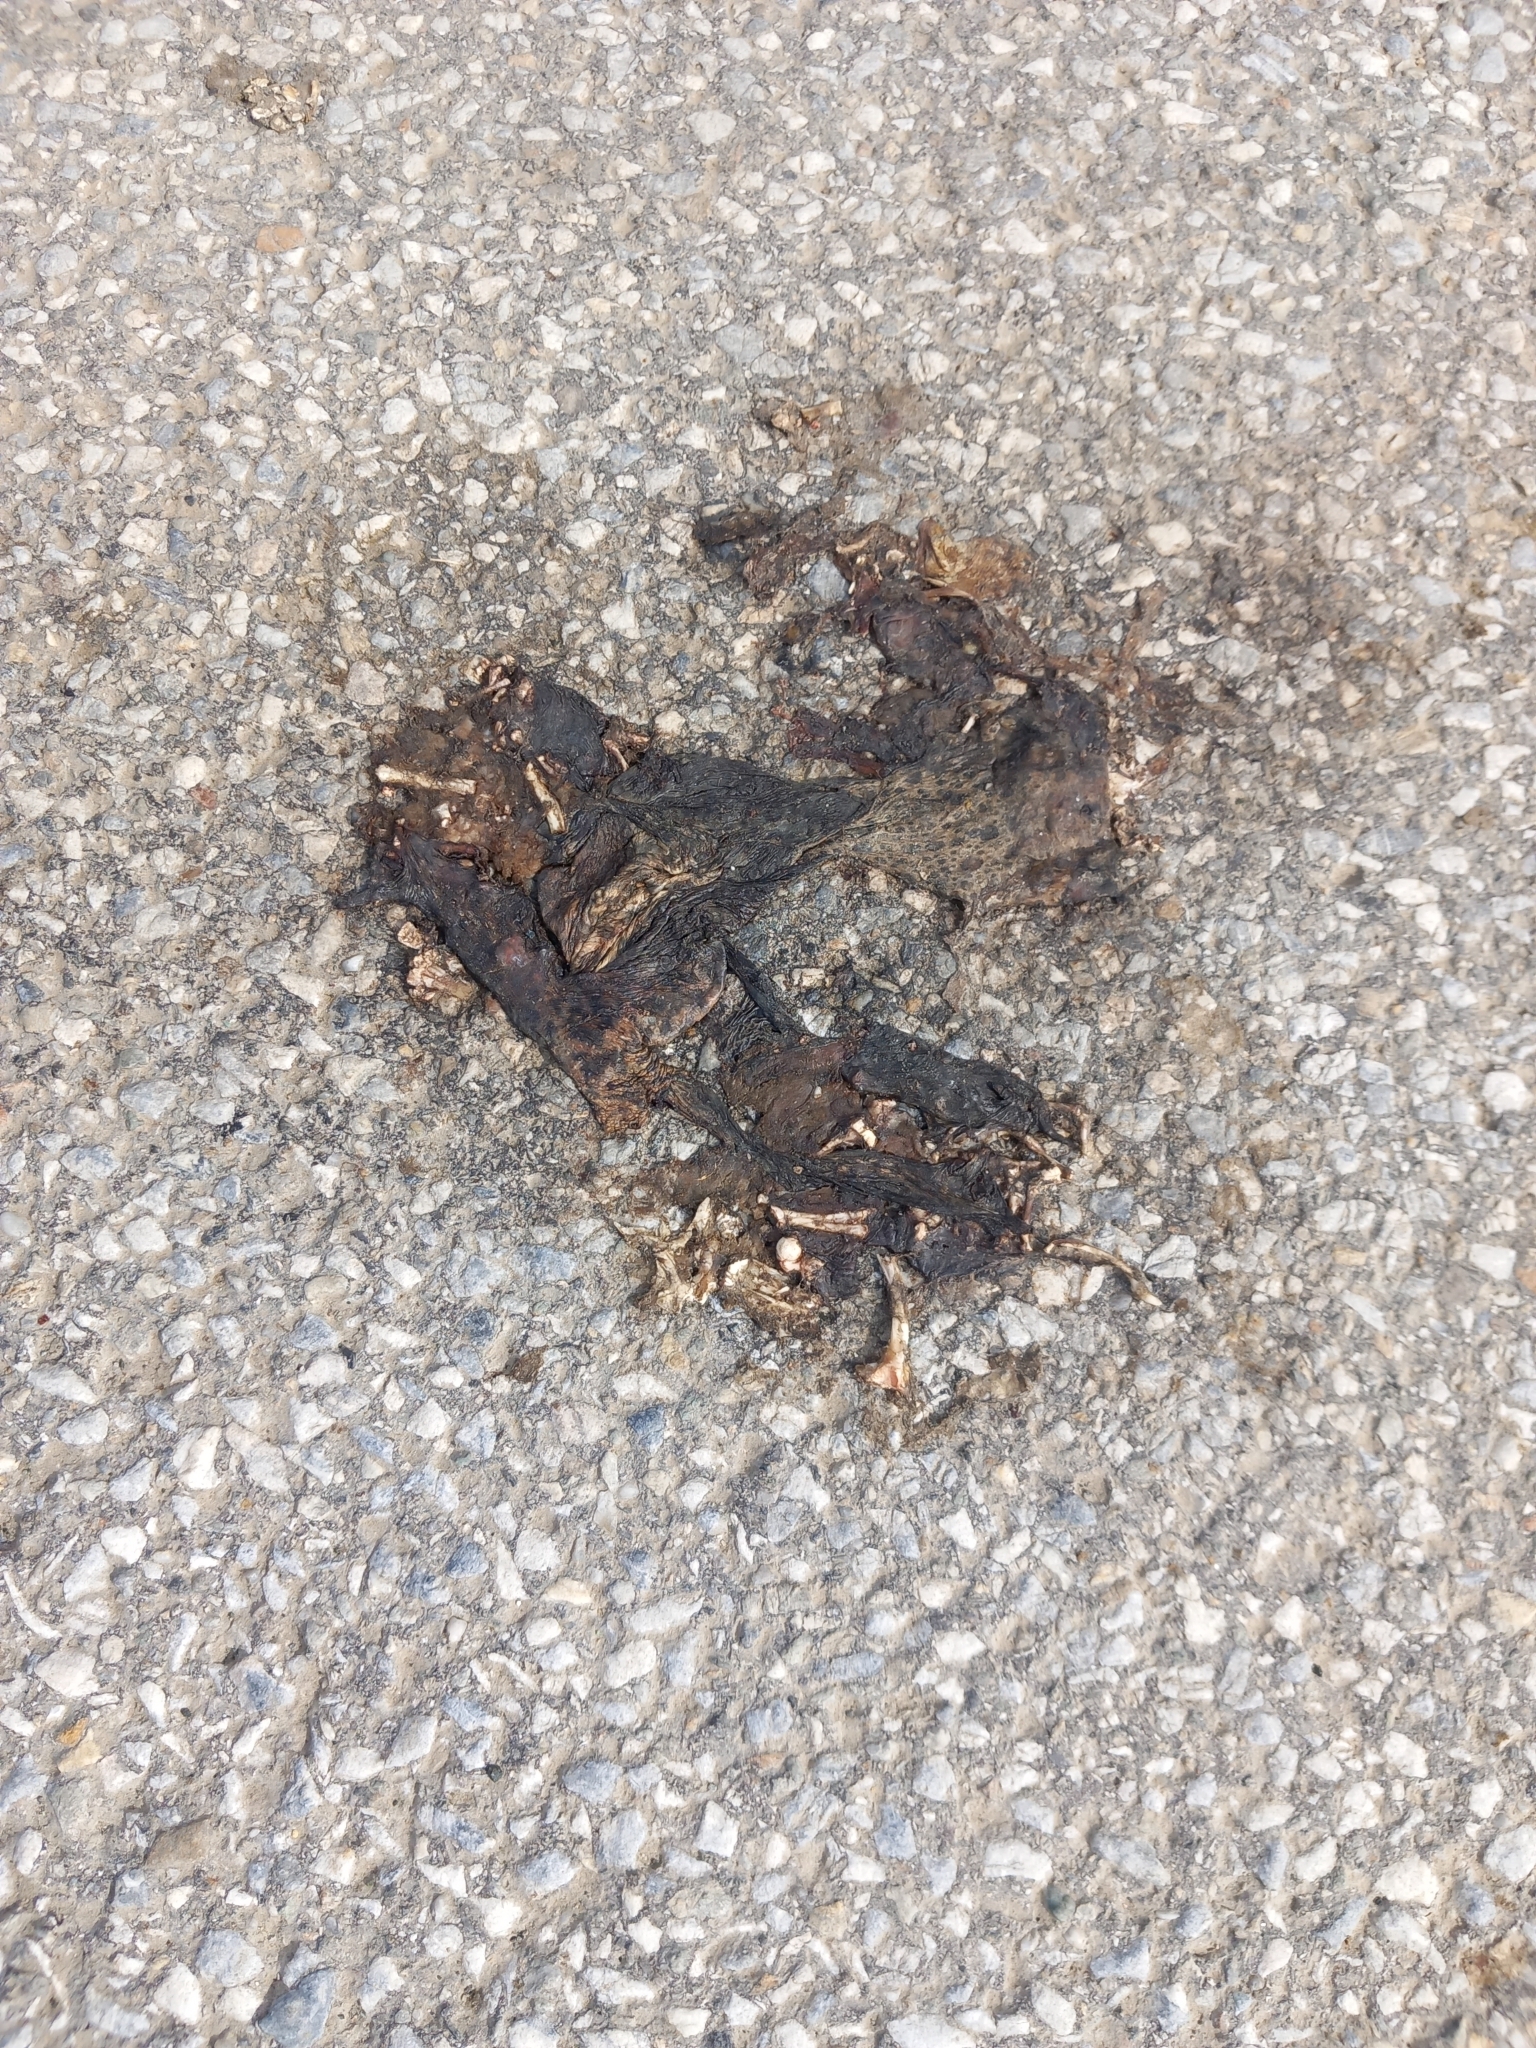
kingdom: Animalia
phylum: Chordata
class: Amphibia
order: Anura
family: Bufonidae
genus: Bufo
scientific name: Bufo bufo
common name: Common toad
